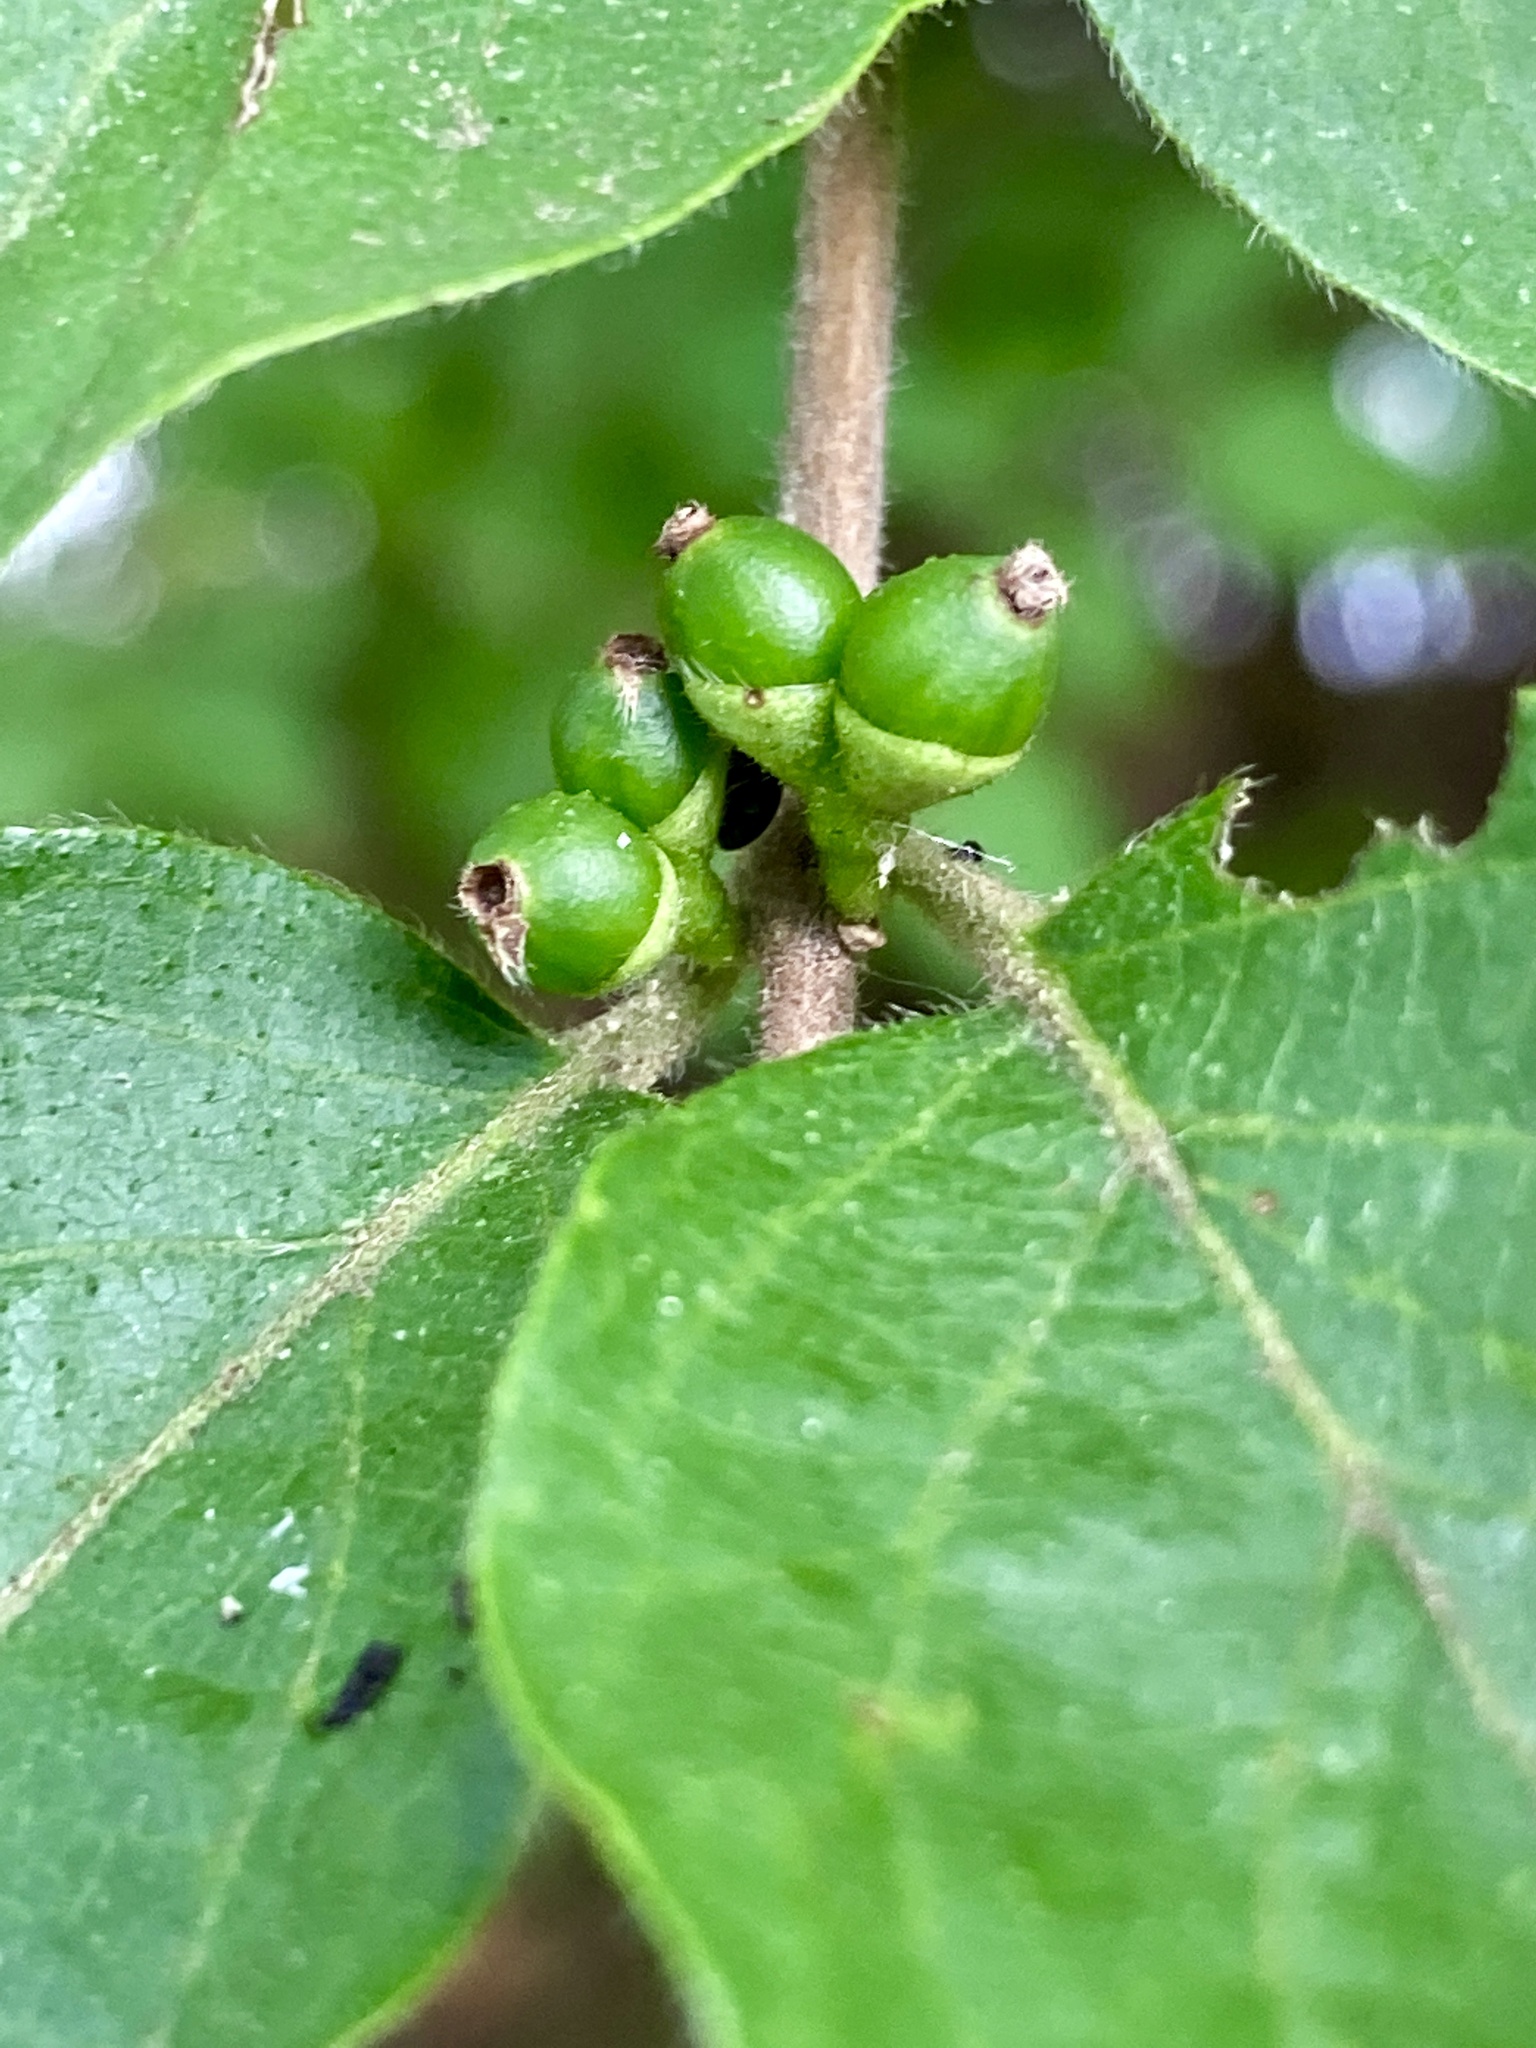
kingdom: Plantae
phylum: Tracheophyta
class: Magnoliopsida
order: Dipsacales
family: Caprifoliaceae
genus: Lonicera
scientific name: Lonicera maackii
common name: Amur honeysuckle
